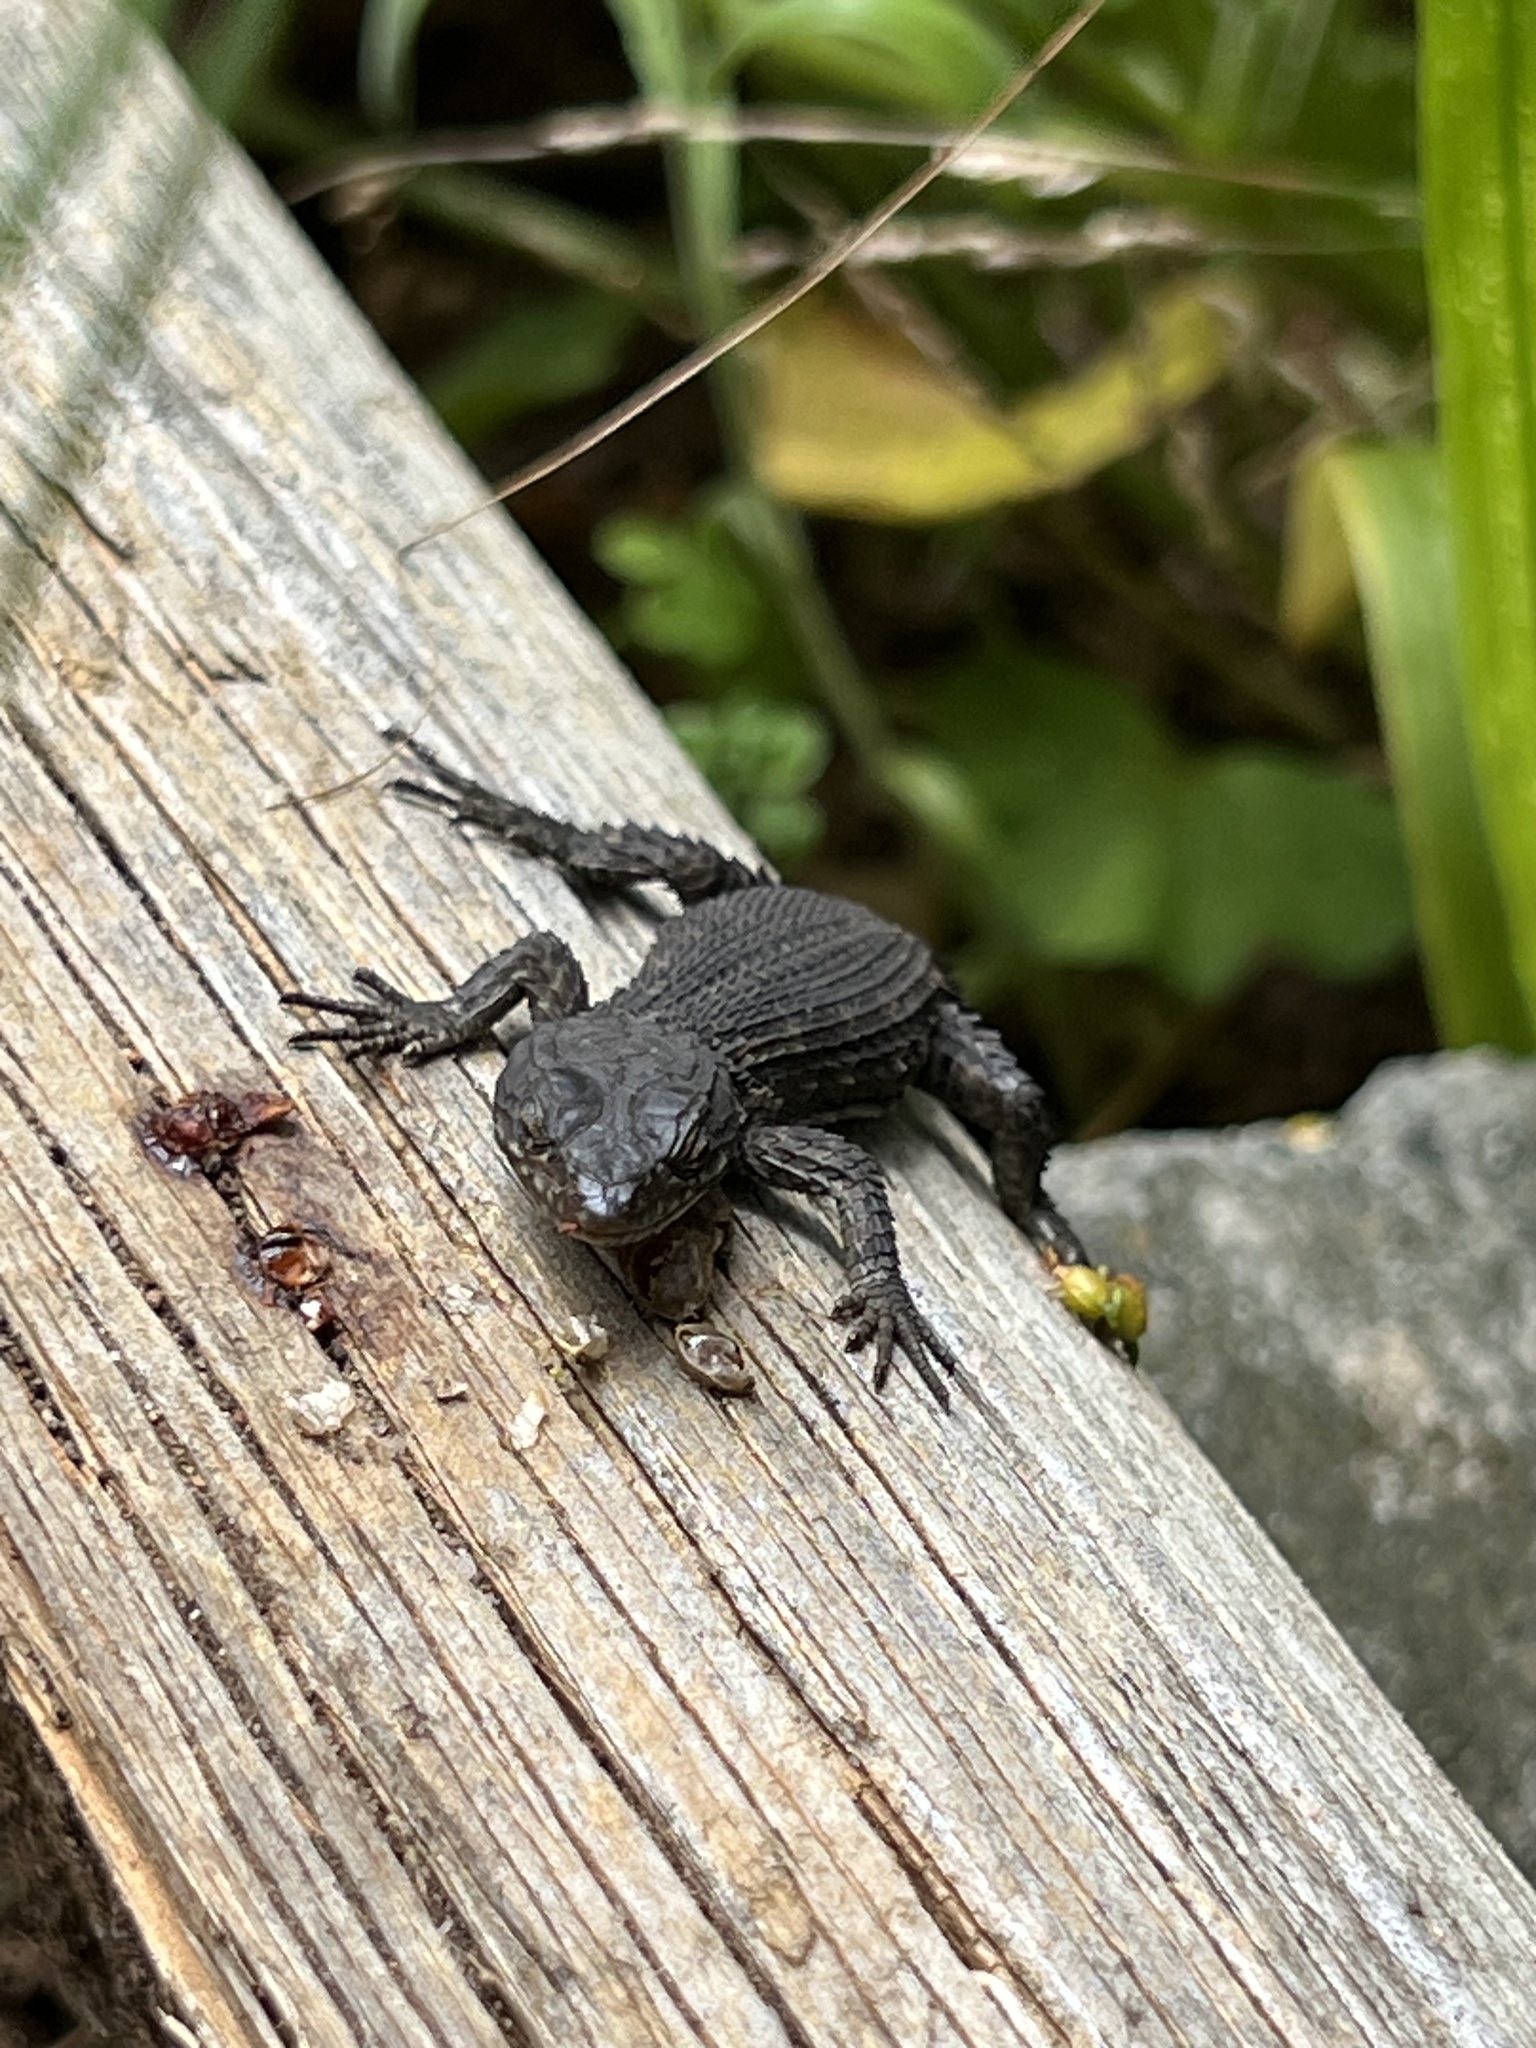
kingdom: Animalia
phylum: Chordata
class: Squamata
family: Cordylidae
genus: Cordylus
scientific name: Cordylus niger
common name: Black girdled lizard
